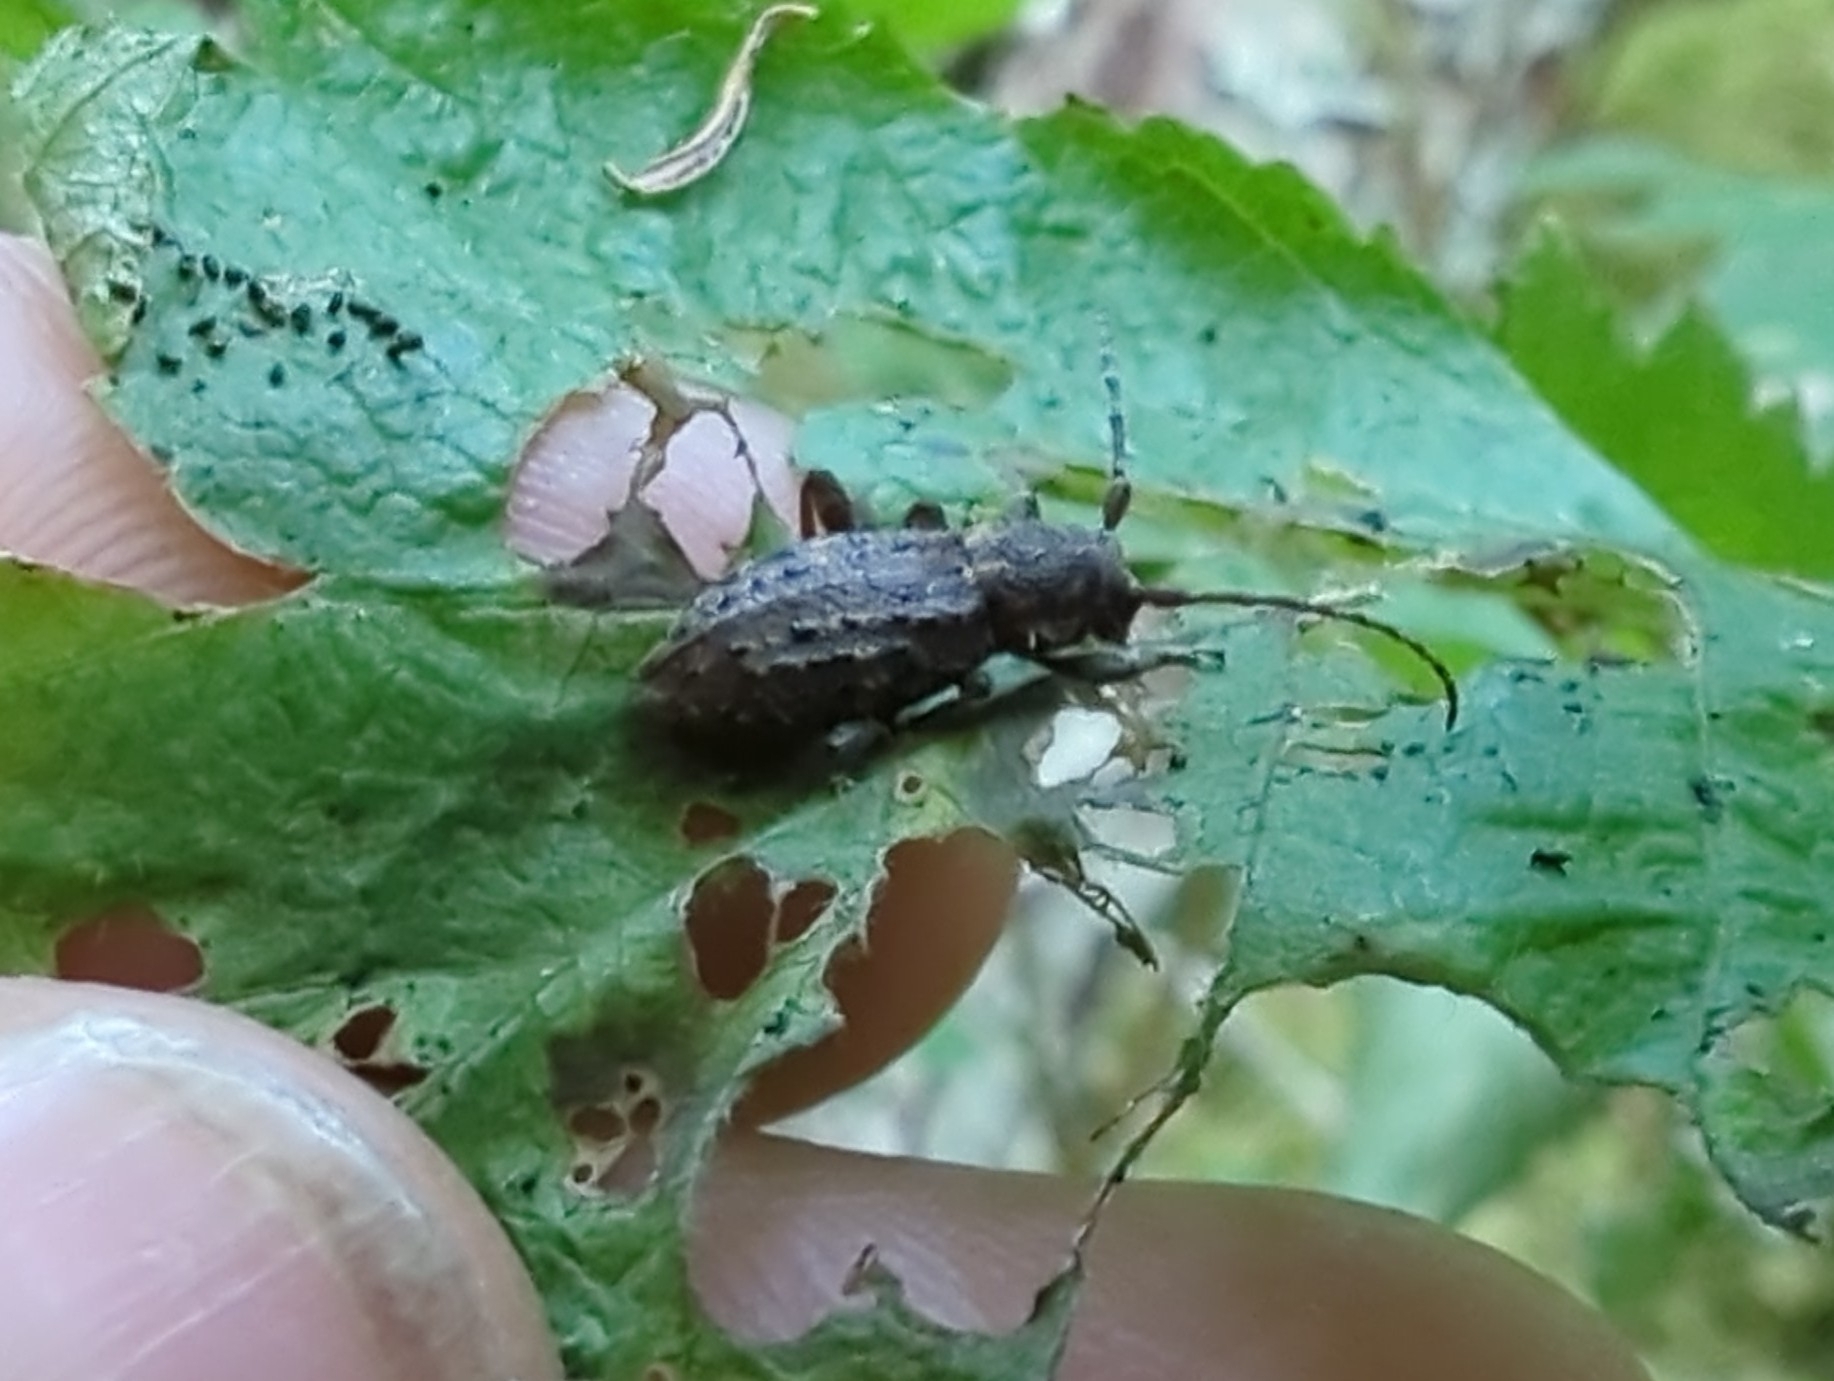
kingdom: Animalia
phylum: Arthropoda
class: Insecta
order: Coleoptera
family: Cerambycidae
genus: Plectrura
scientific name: Plectrura spinicauda
